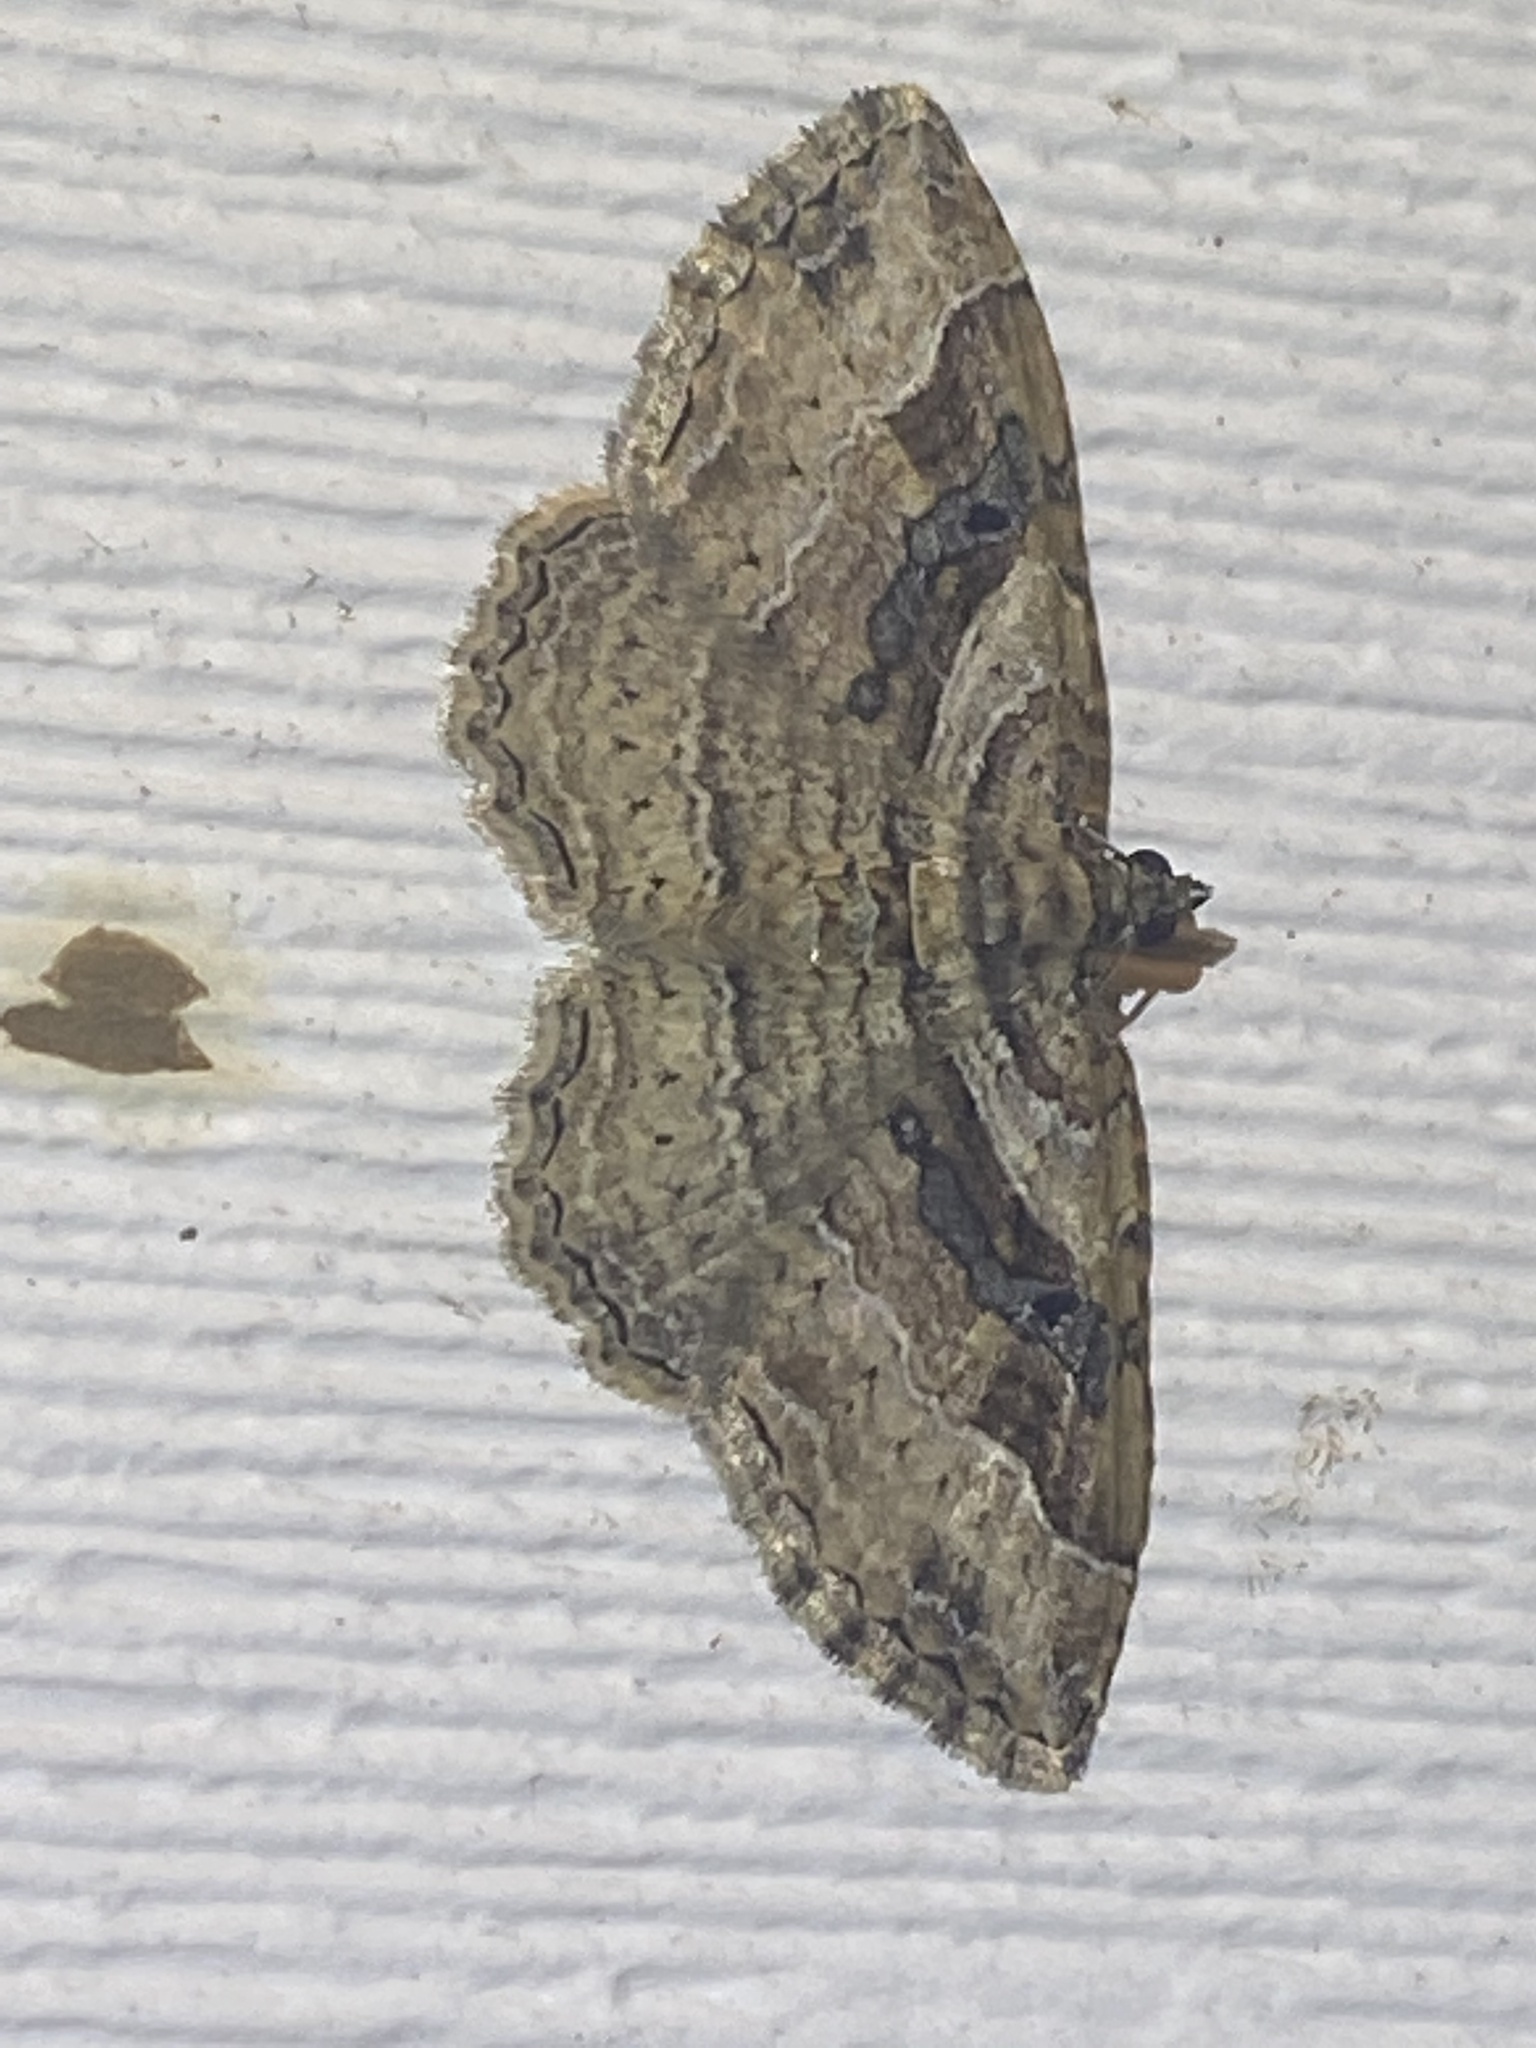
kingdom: Animalia
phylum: Arthropoda
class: Insecta
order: Lepidoptera
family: Geometridae
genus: Costaconvexa
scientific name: Costaconvexa centrostrigaria
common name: Bent-line carpet
